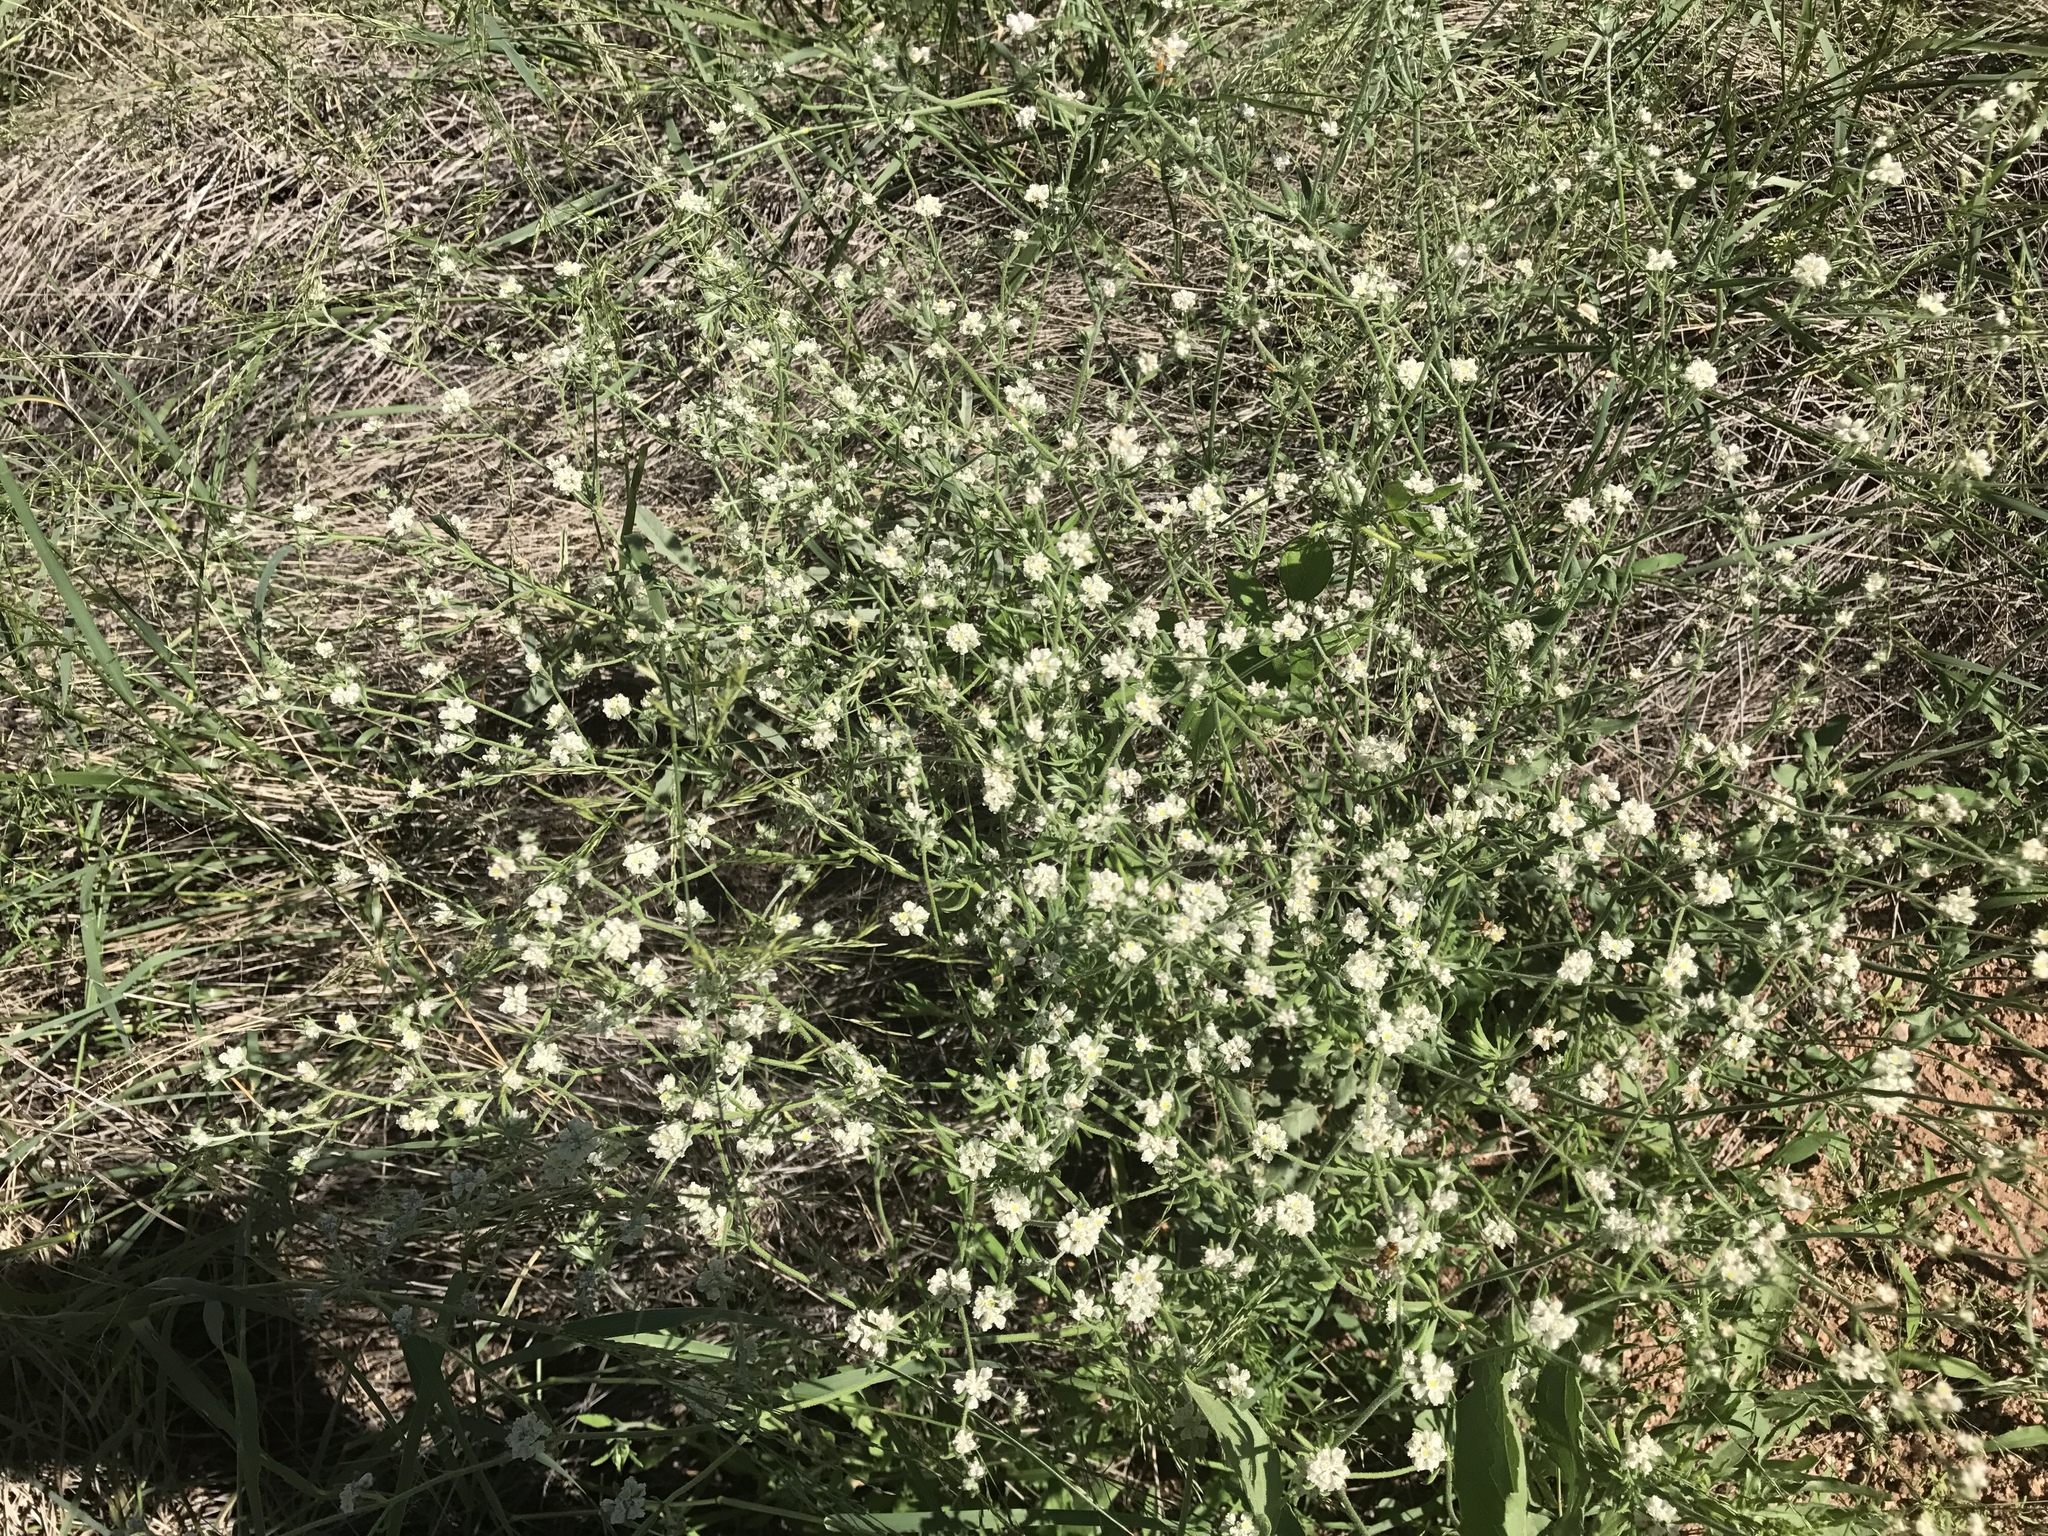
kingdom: Plantae
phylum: Tracheophyta
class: Magnoliopsida
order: Caryophyllales
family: Polygonaceae
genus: Eriogonum
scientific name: Eriogonum abertianum
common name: Abert's wild buckwheat
